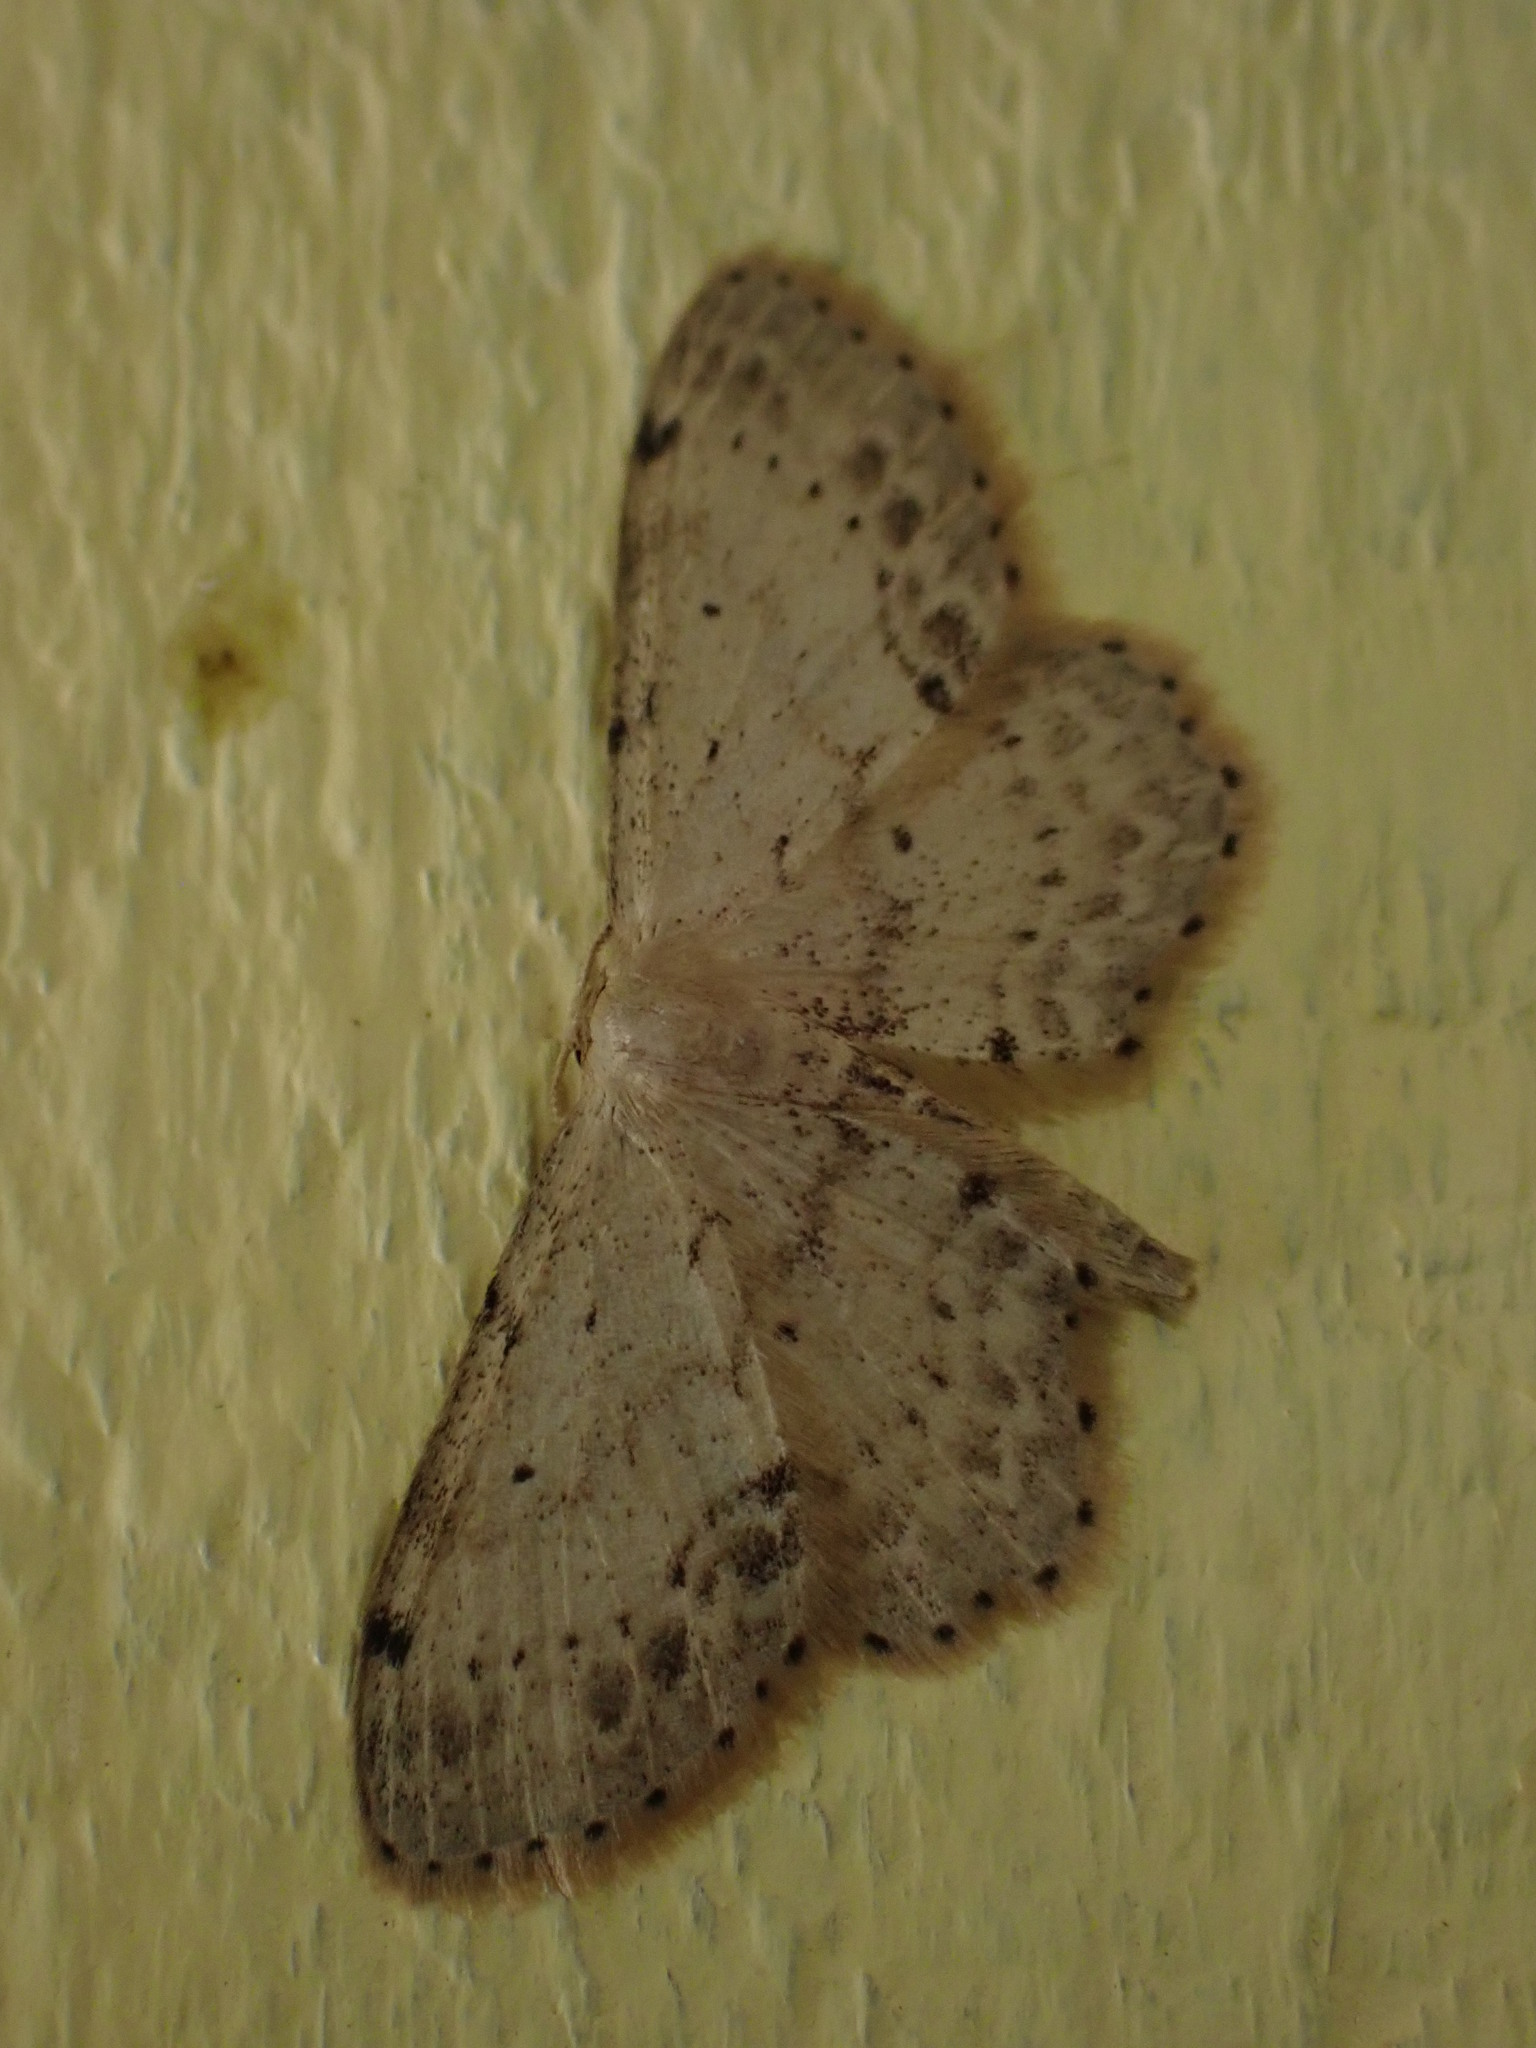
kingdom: Animalia
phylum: Arthropoda
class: Insecta
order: Lepidoptera
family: Geometridae
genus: Idaea
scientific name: Idaea dimidiata
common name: Single-dotted wave
